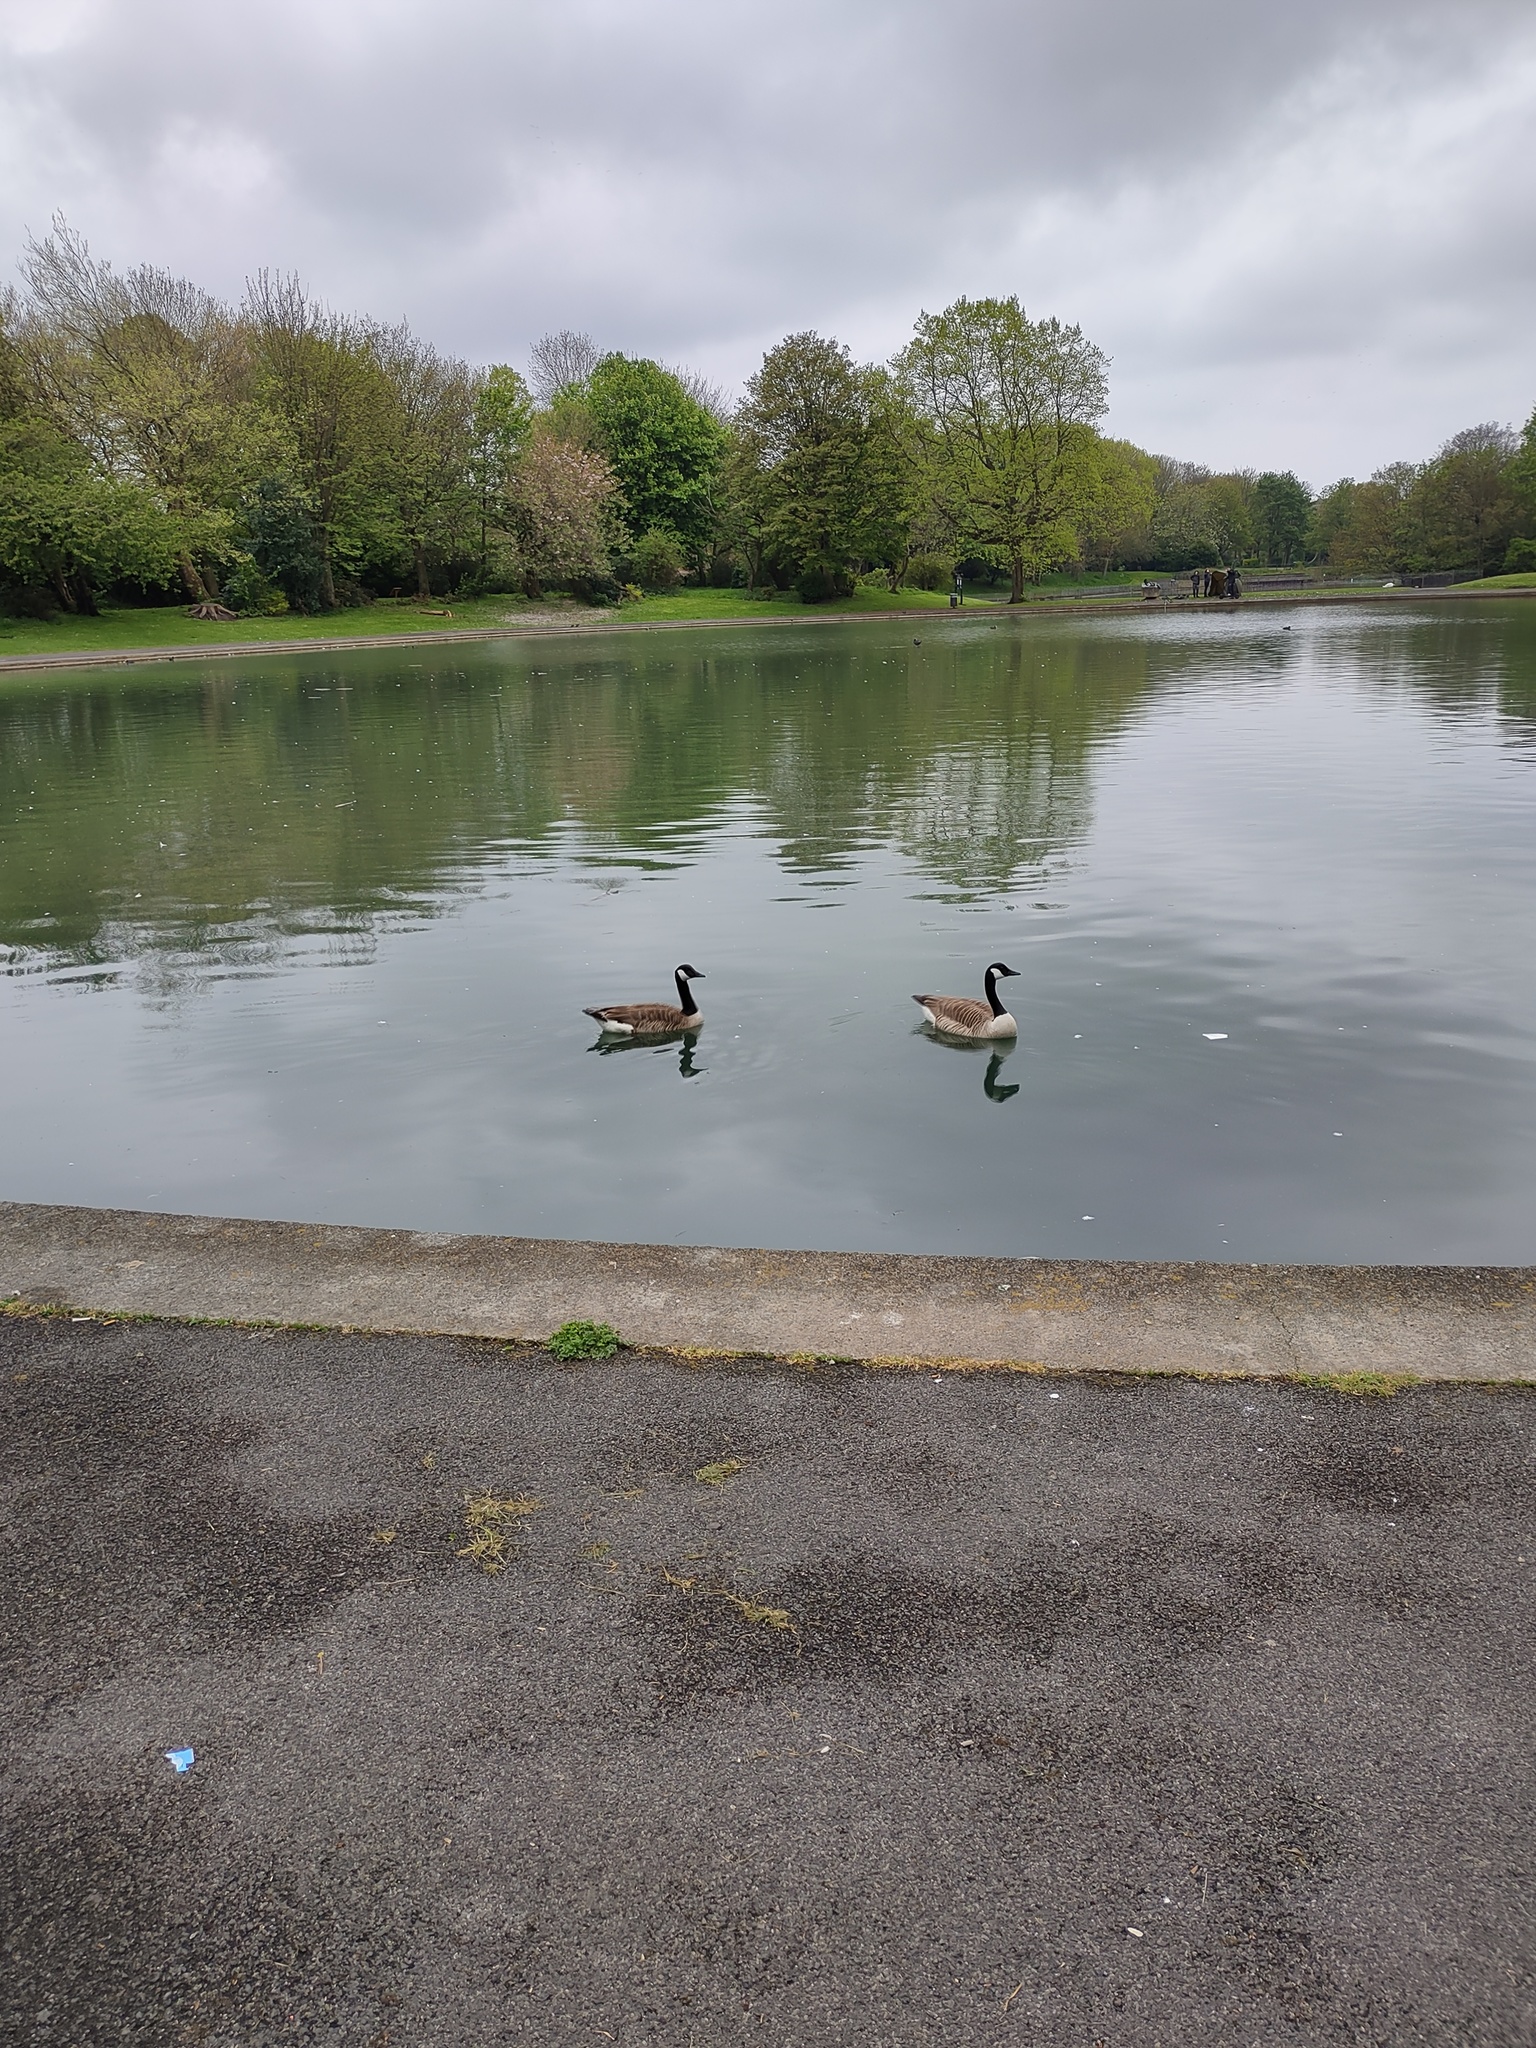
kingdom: Animalia
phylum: Chordata
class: Aves
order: Anseriformes
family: Anatidae
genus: Branta
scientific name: Branta canadensis
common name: Canada goose
